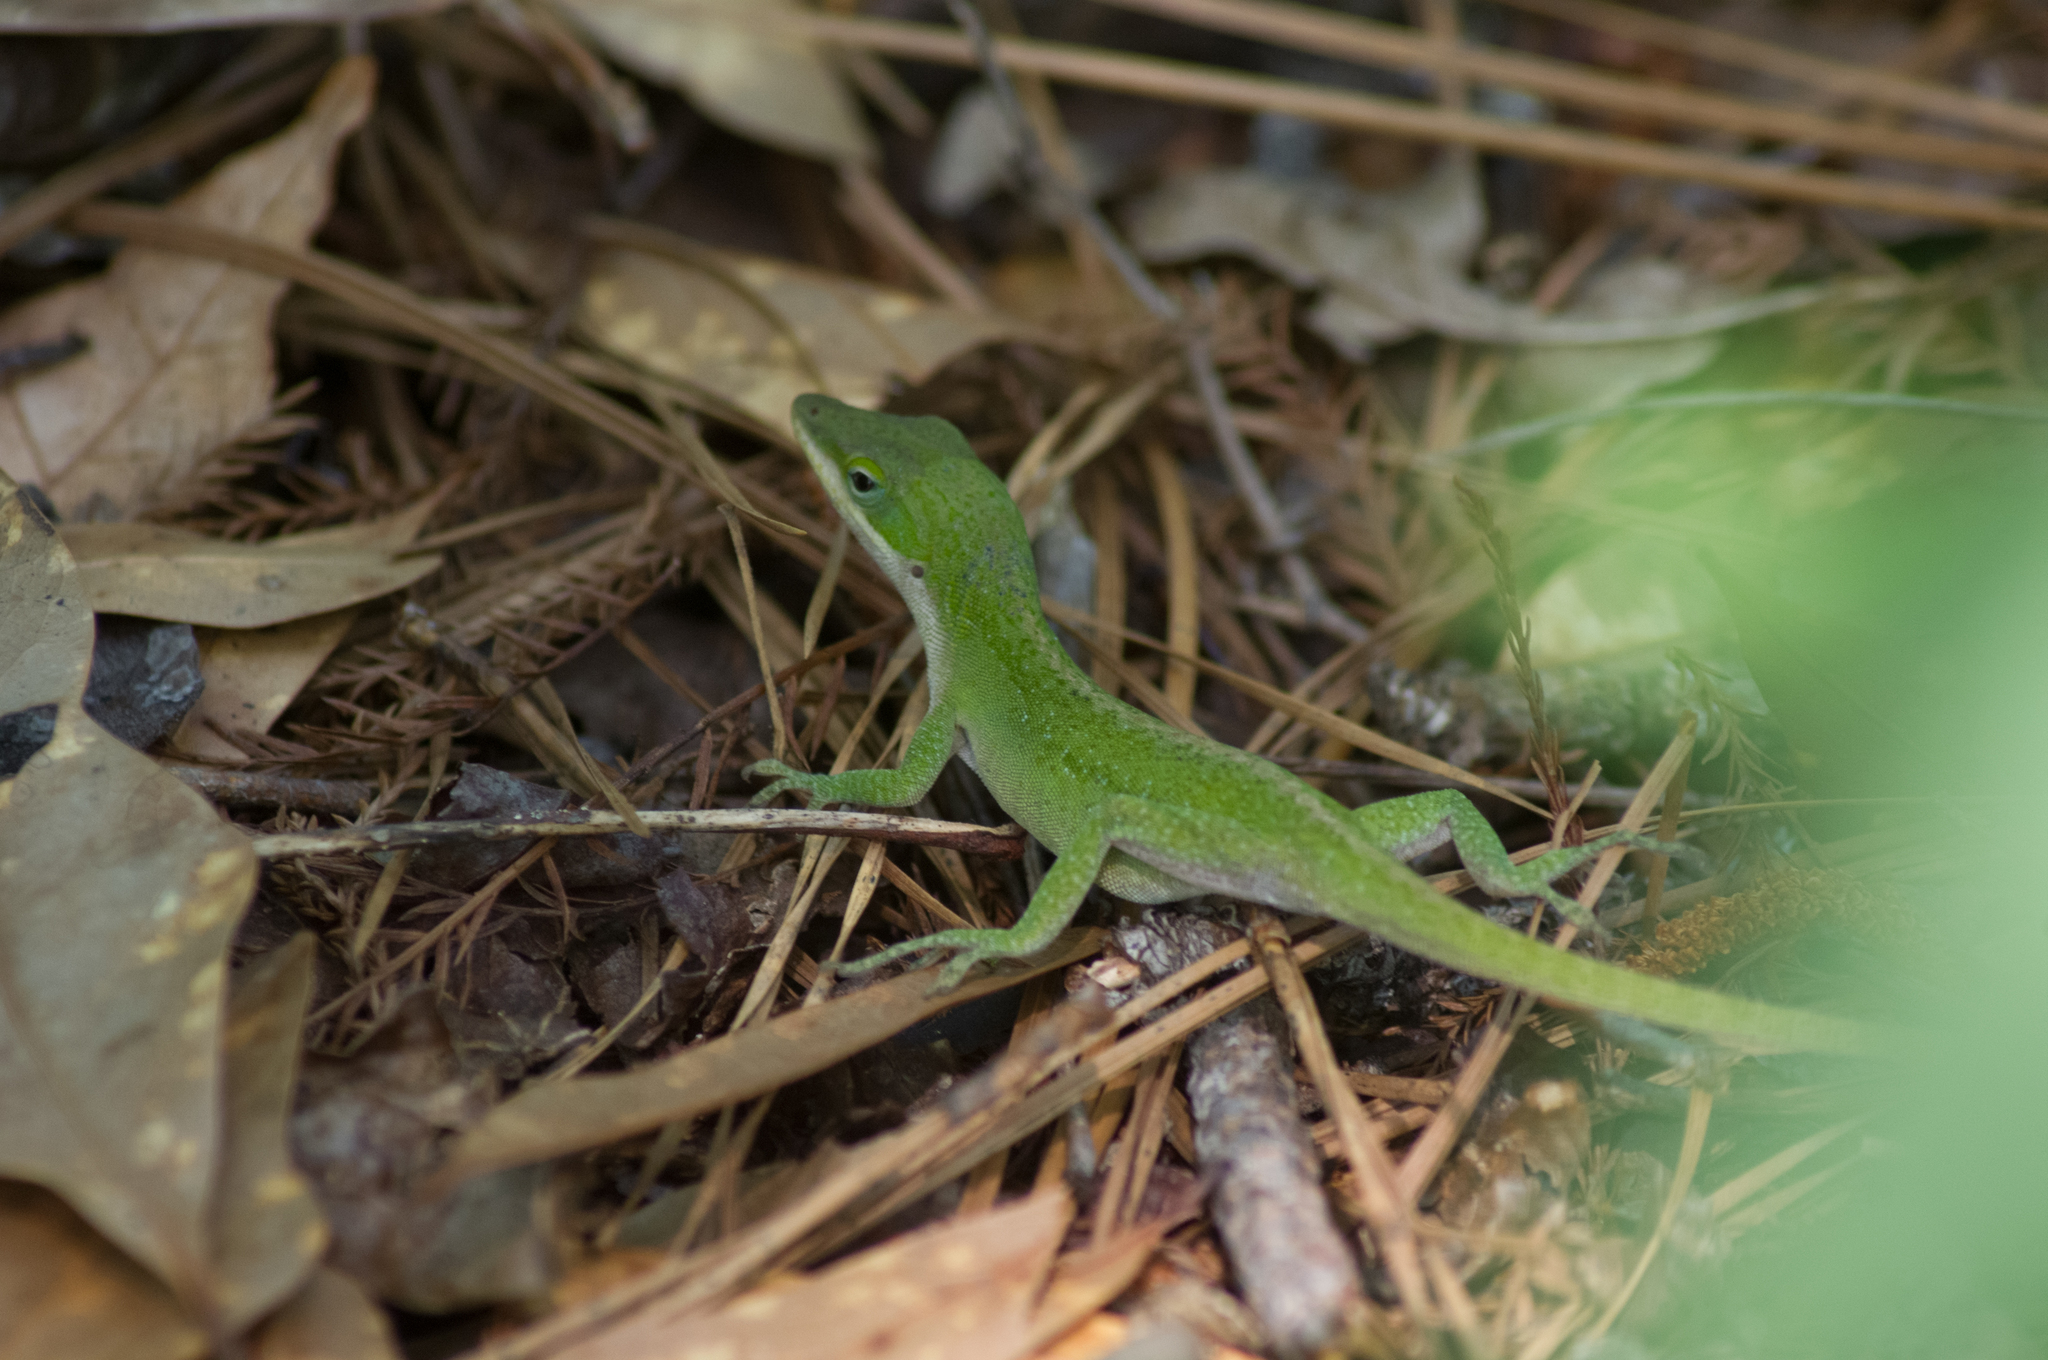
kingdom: Animalia
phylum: Chordata
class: Squamata
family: Dactyloidae
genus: Anolis
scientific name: Anolis carolinensis
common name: Green anole
